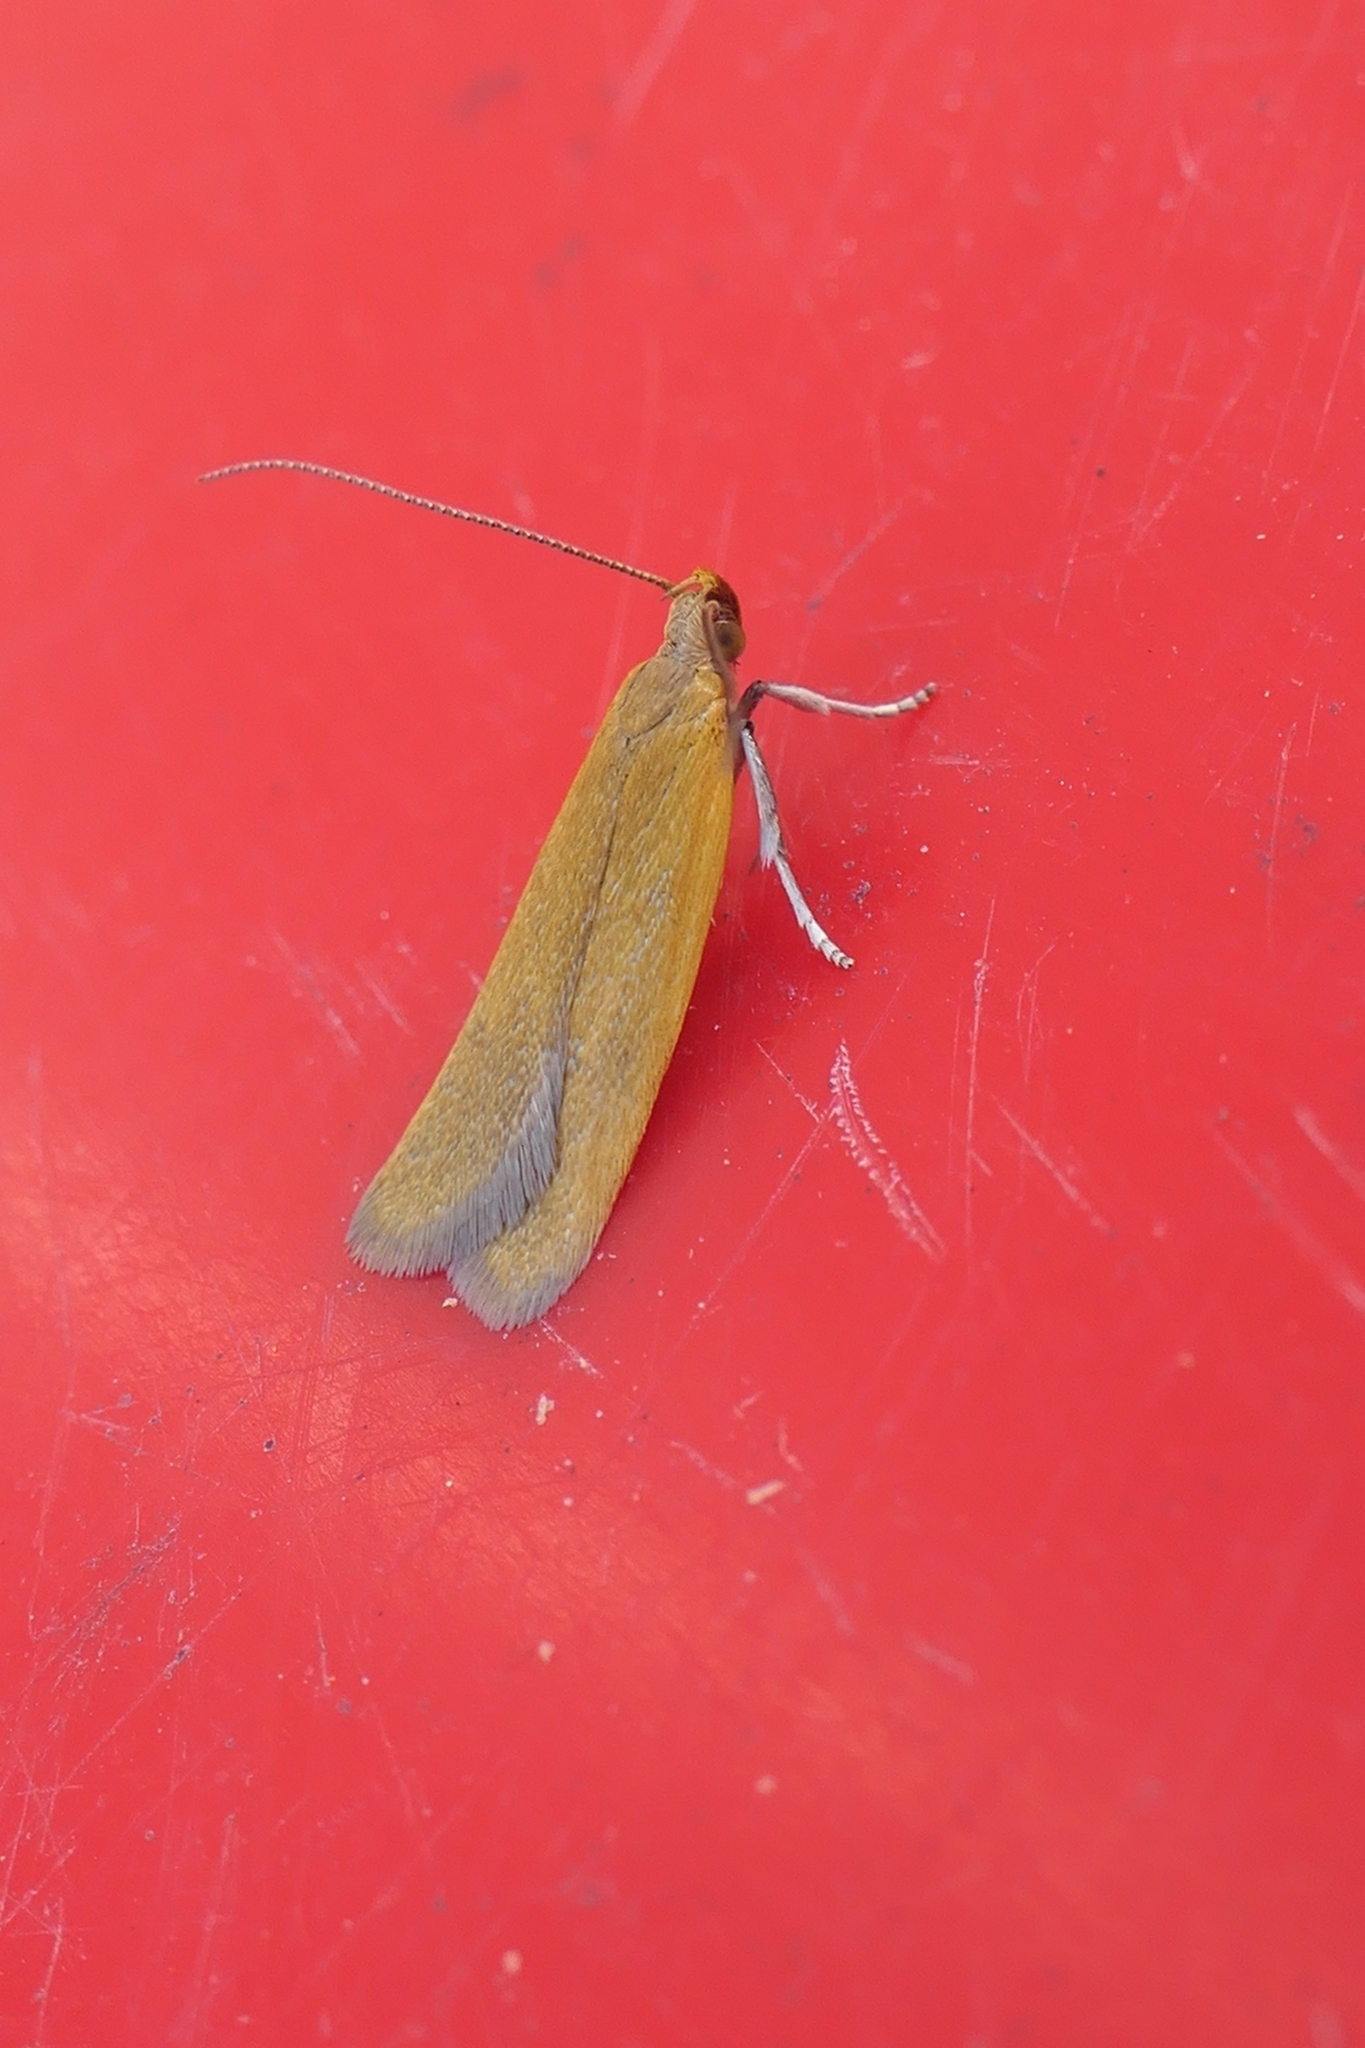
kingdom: Animalia
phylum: Arthropoda
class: Insecta
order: Lepidoptera
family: Oecophoridae
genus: Gymnobathra
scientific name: Gymnobathra parca
